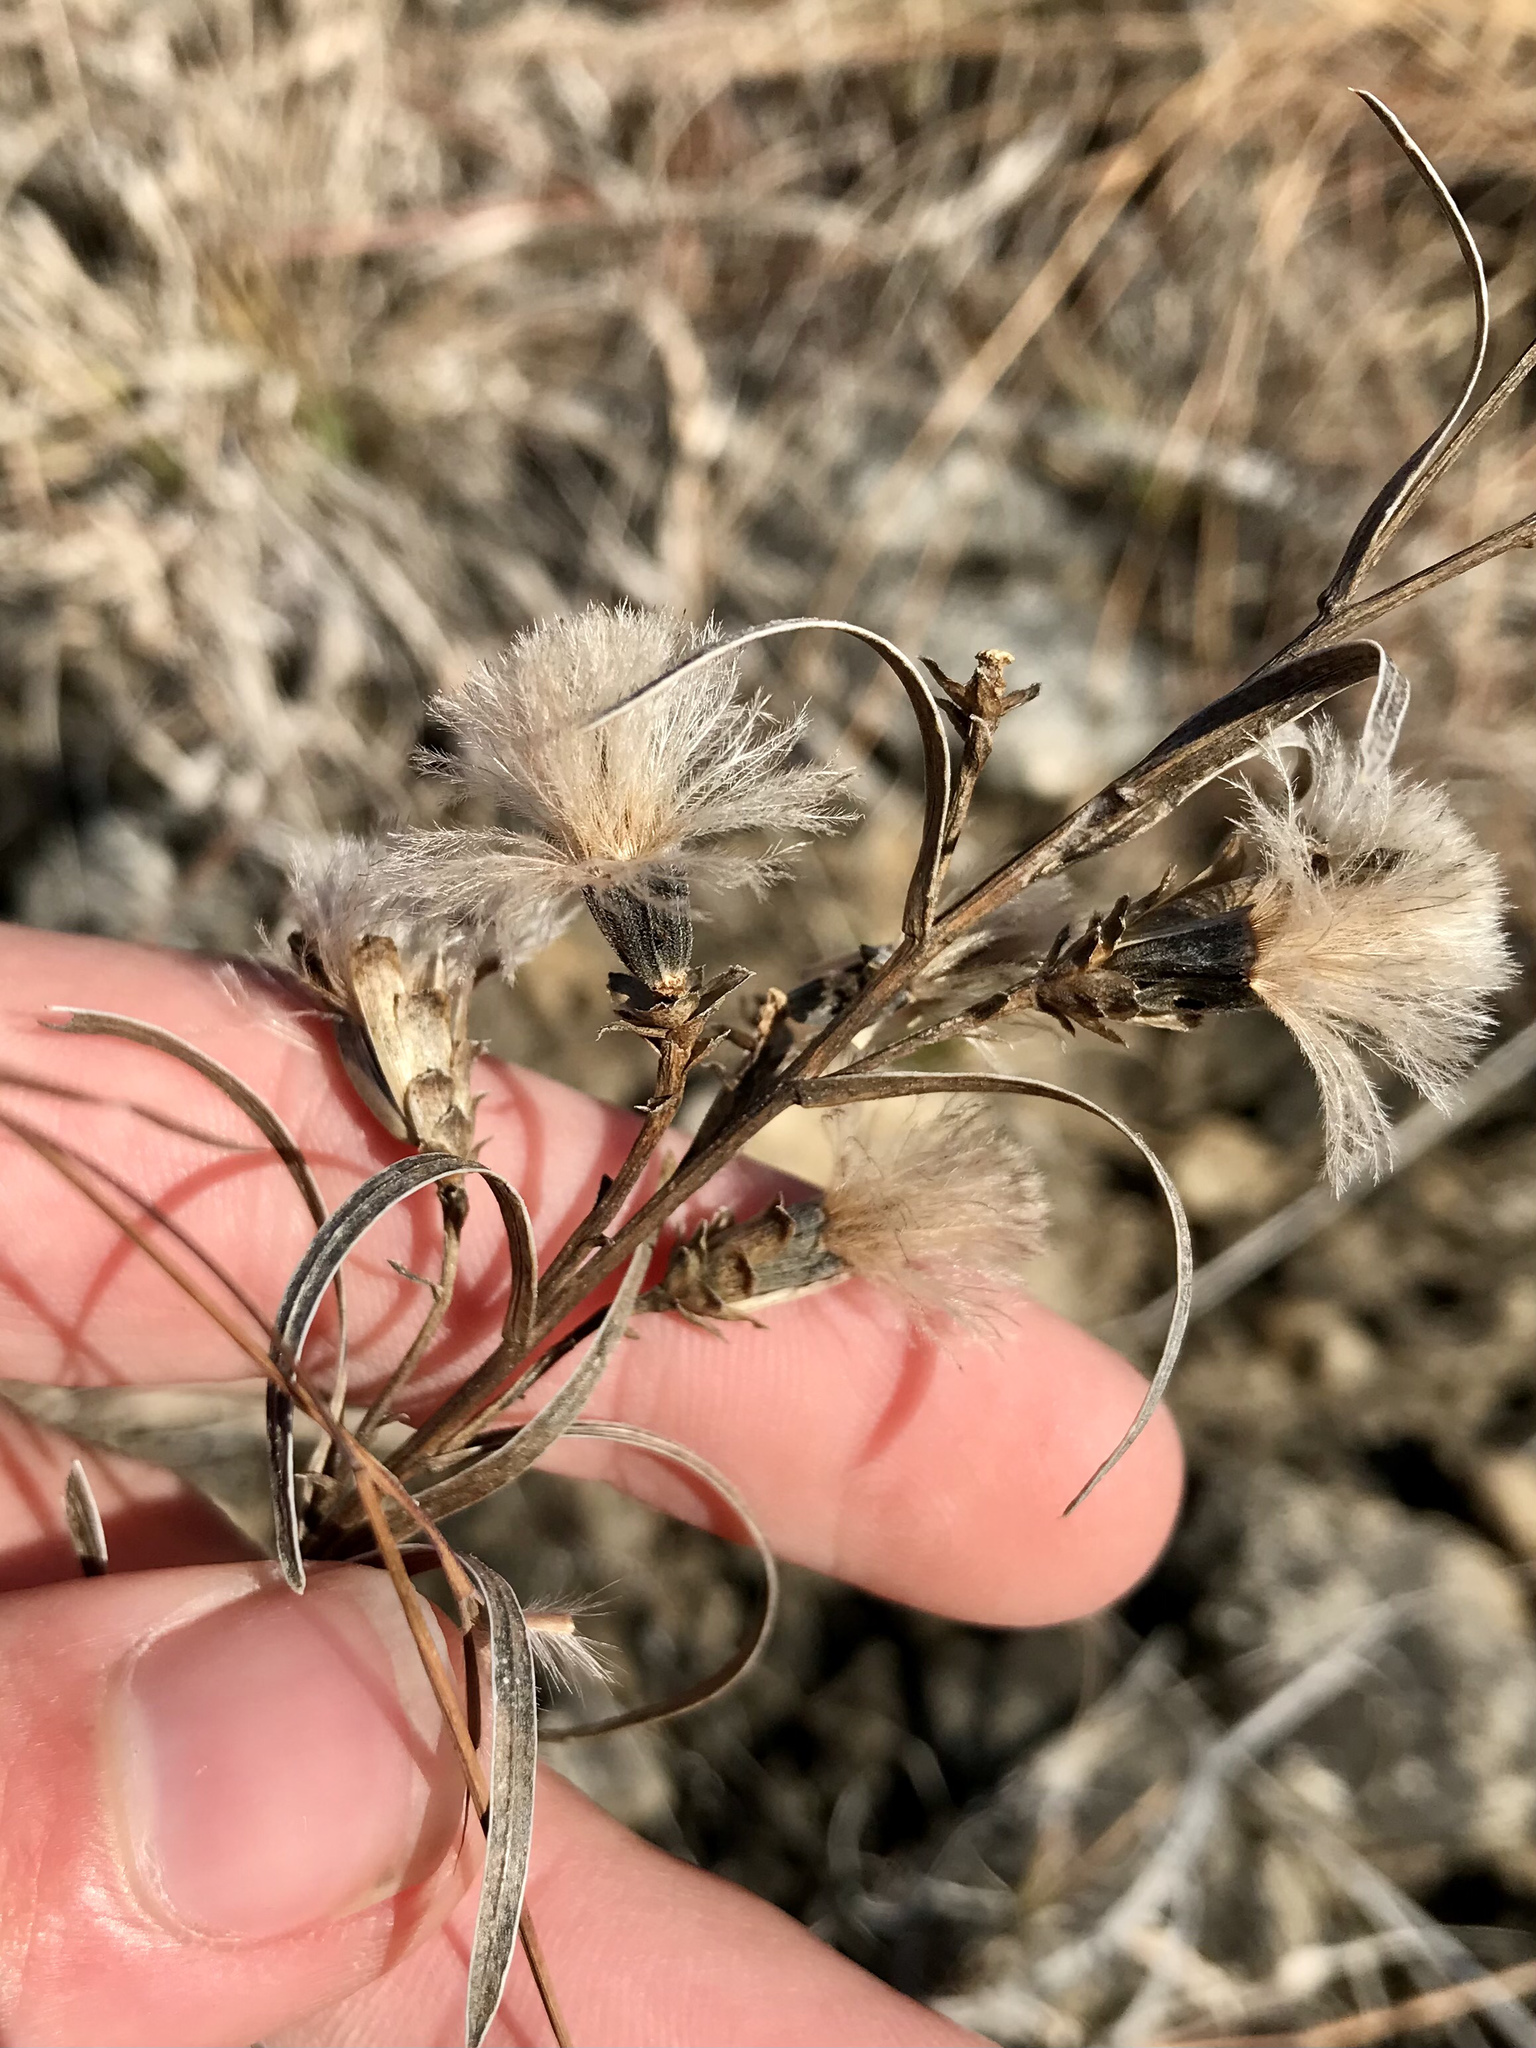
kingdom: Plantae
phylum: Tracheophyta
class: Magnoliopsida
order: Asterales
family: Asteraceae
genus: Liatris
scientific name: Liatris cylindracea
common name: Few-head blazingstar
